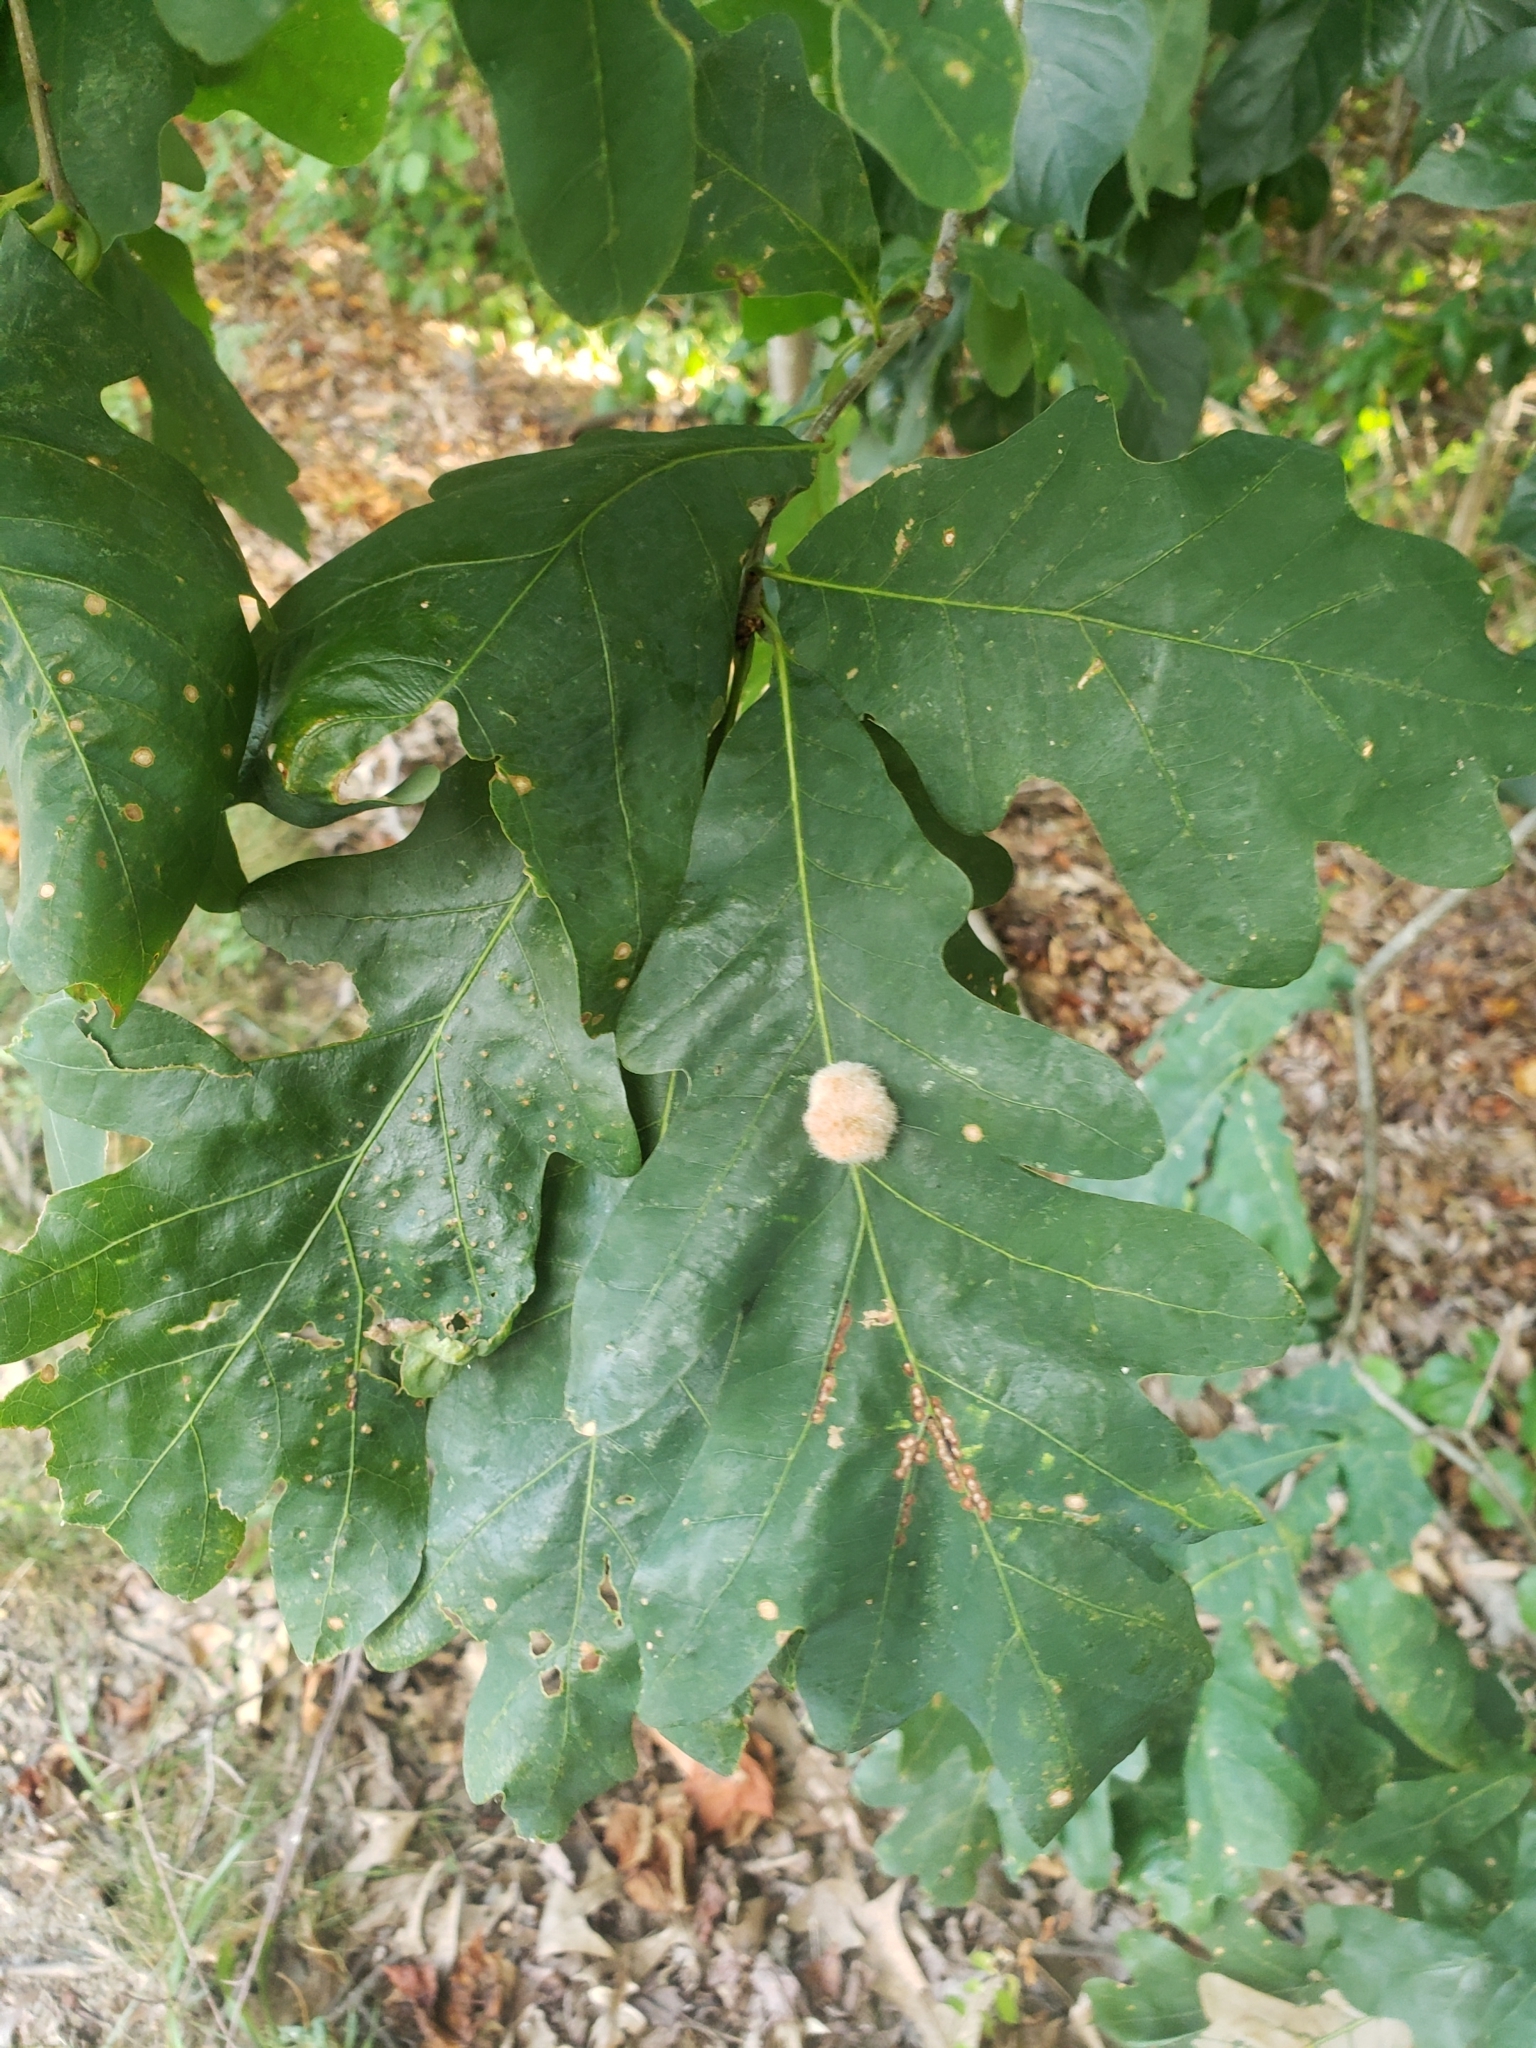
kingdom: Animalia
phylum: Arthropoda
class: Insecta
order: Hymenoptera
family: Cynipidae
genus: Andricus
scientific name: Andricus quercusflocci
